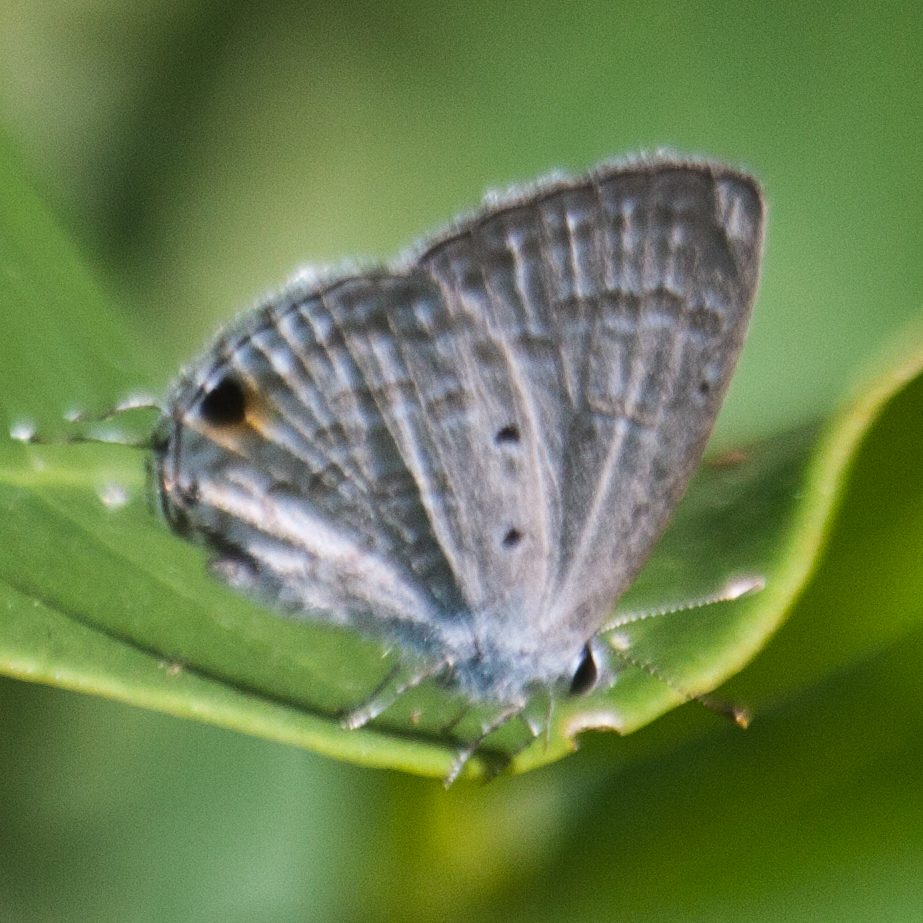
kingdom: Animalia
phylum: Arthropoda
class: Insecta
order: Lepidoptera
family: Lycaenidae
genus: Catochrysops
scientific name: Catochrysops strabo
